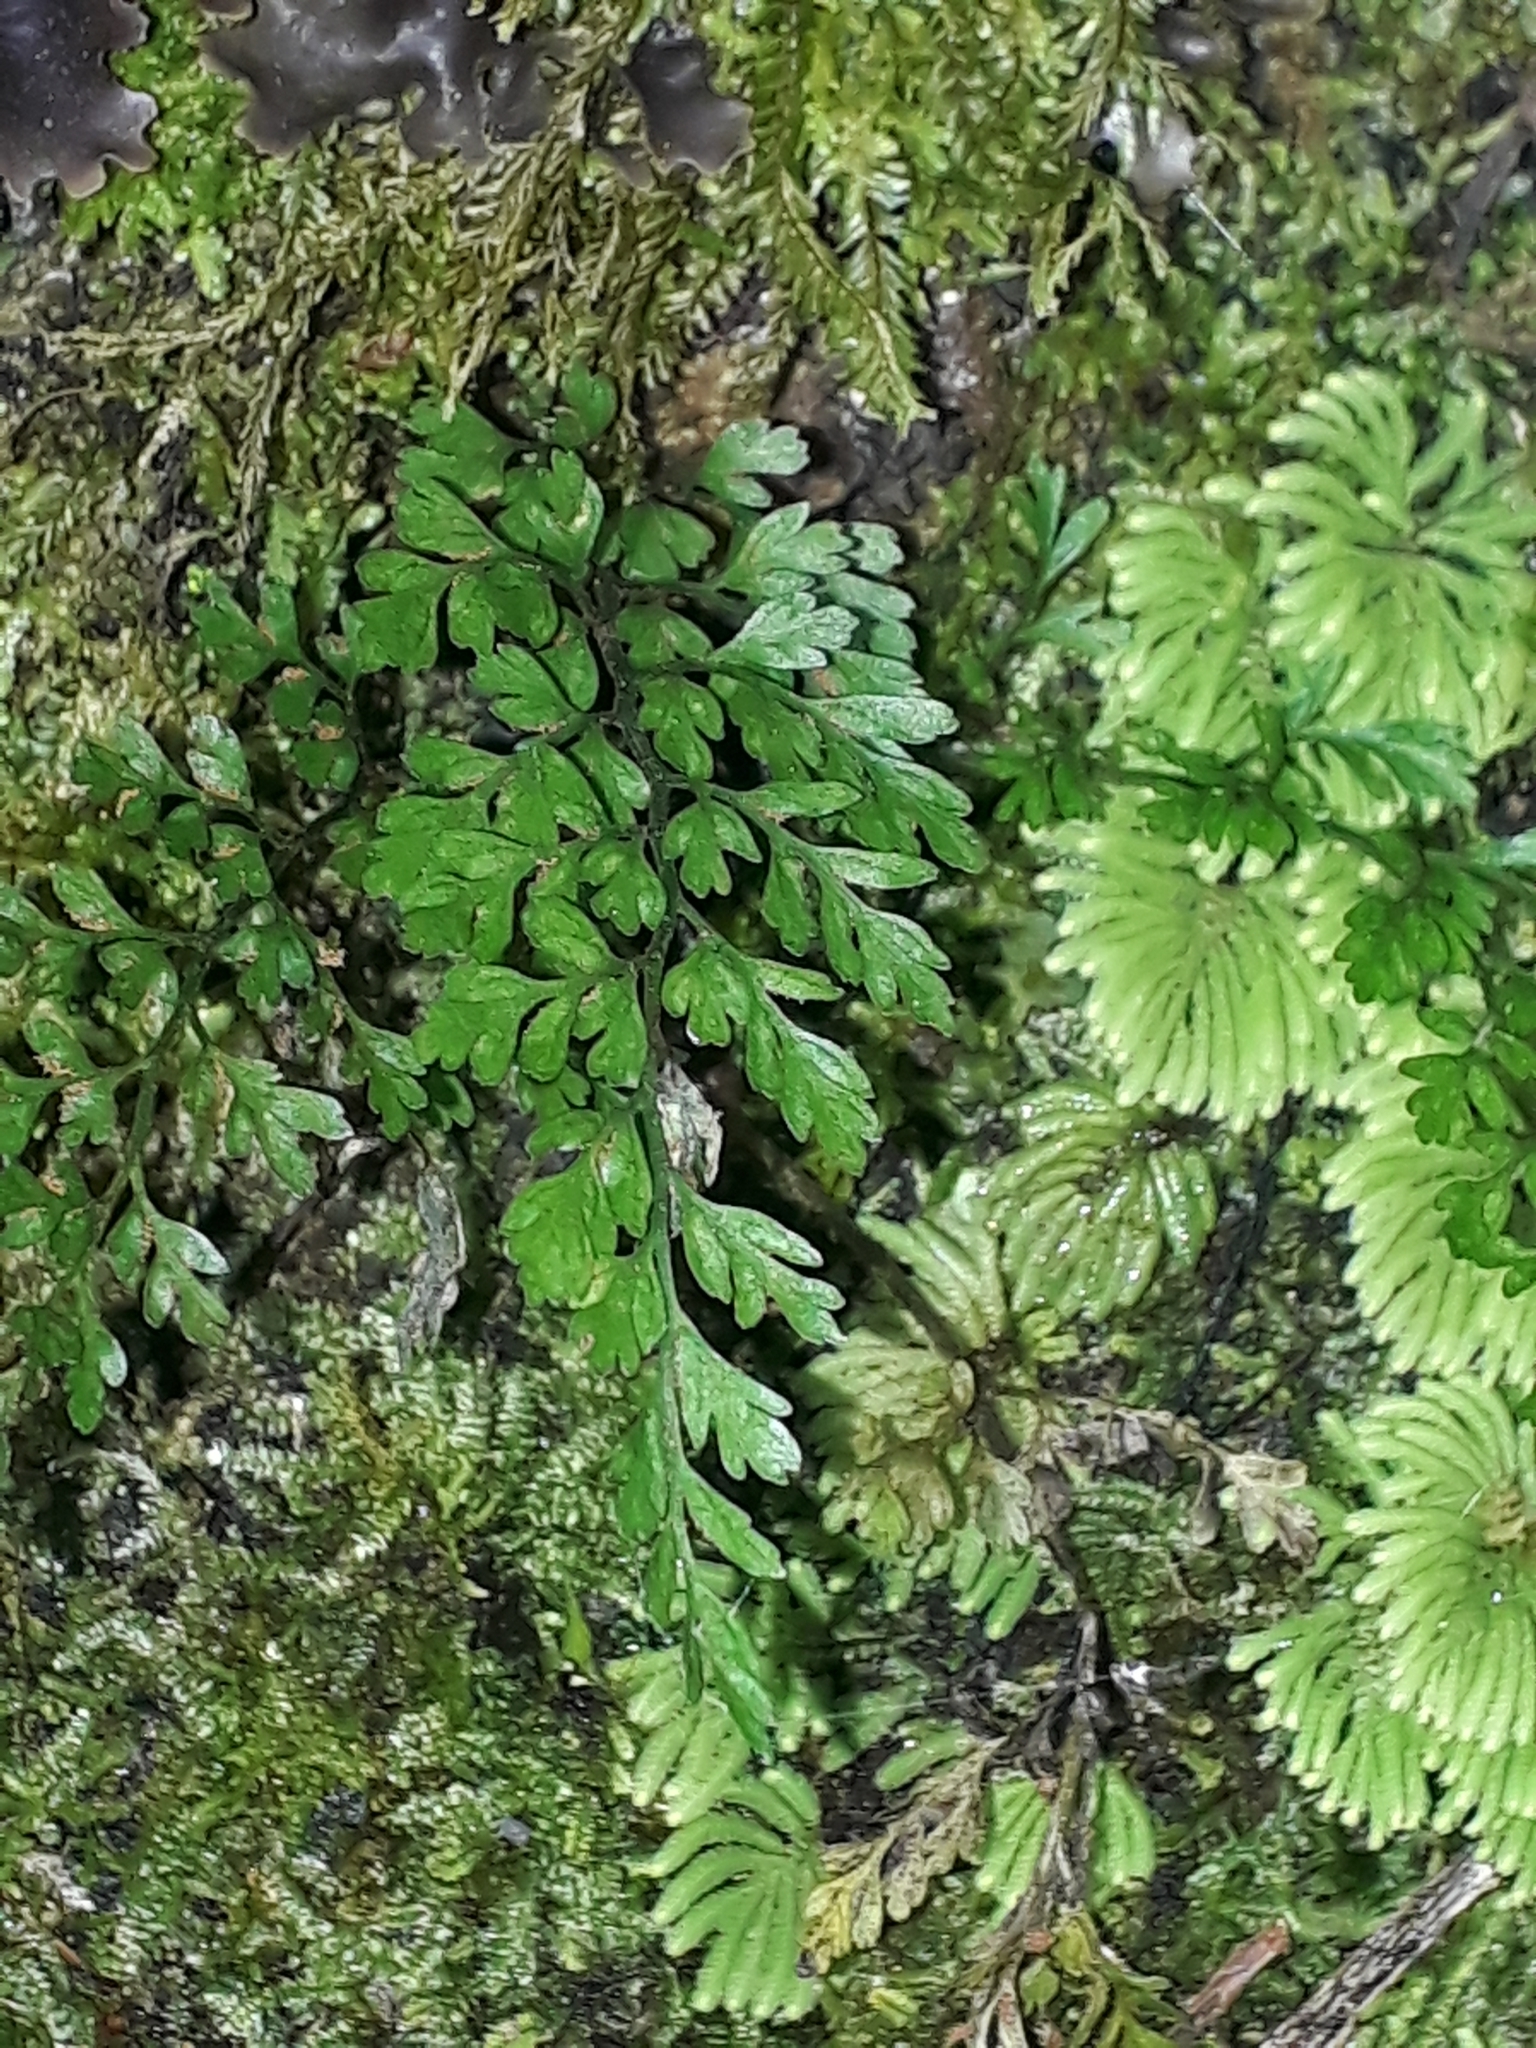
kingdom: Plantae
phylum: Tracheophyta
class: Polypodiopsida
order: Polypodiales
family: Aspleniaceae
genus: Asplenium
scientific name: Asplenium hookerianum
